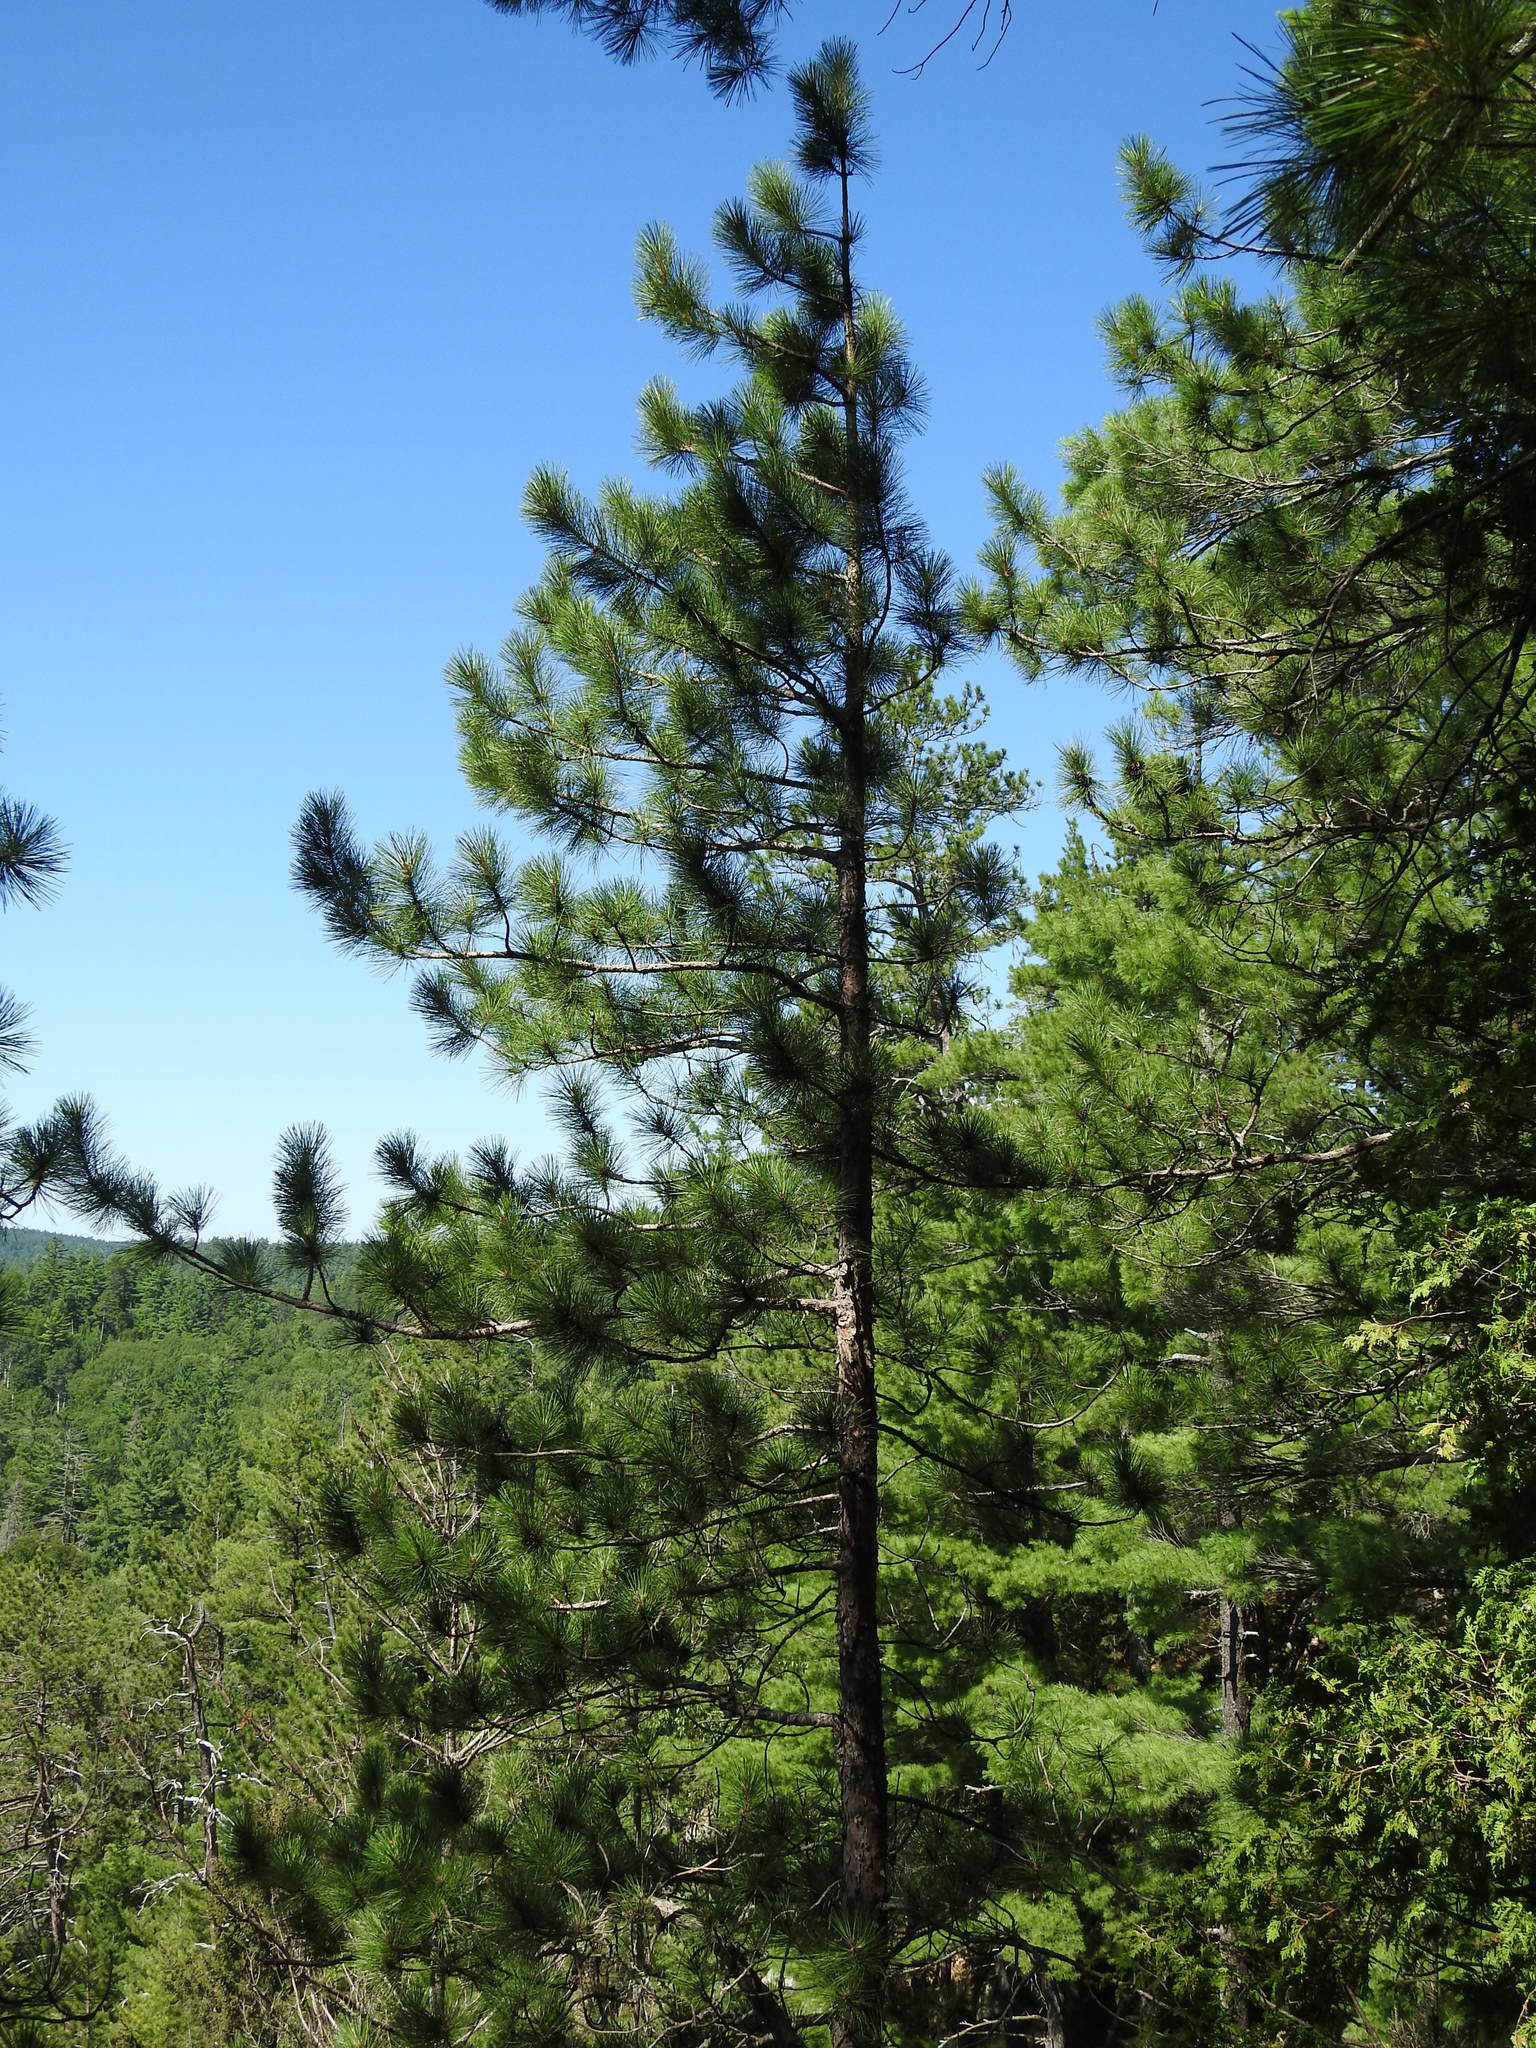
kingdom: Plantae
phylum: Tracheophyta
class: Pinopsida
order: Pinales
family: Pinaceae
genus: Pinus
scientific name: Pinus resinosa
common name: Norway pine
